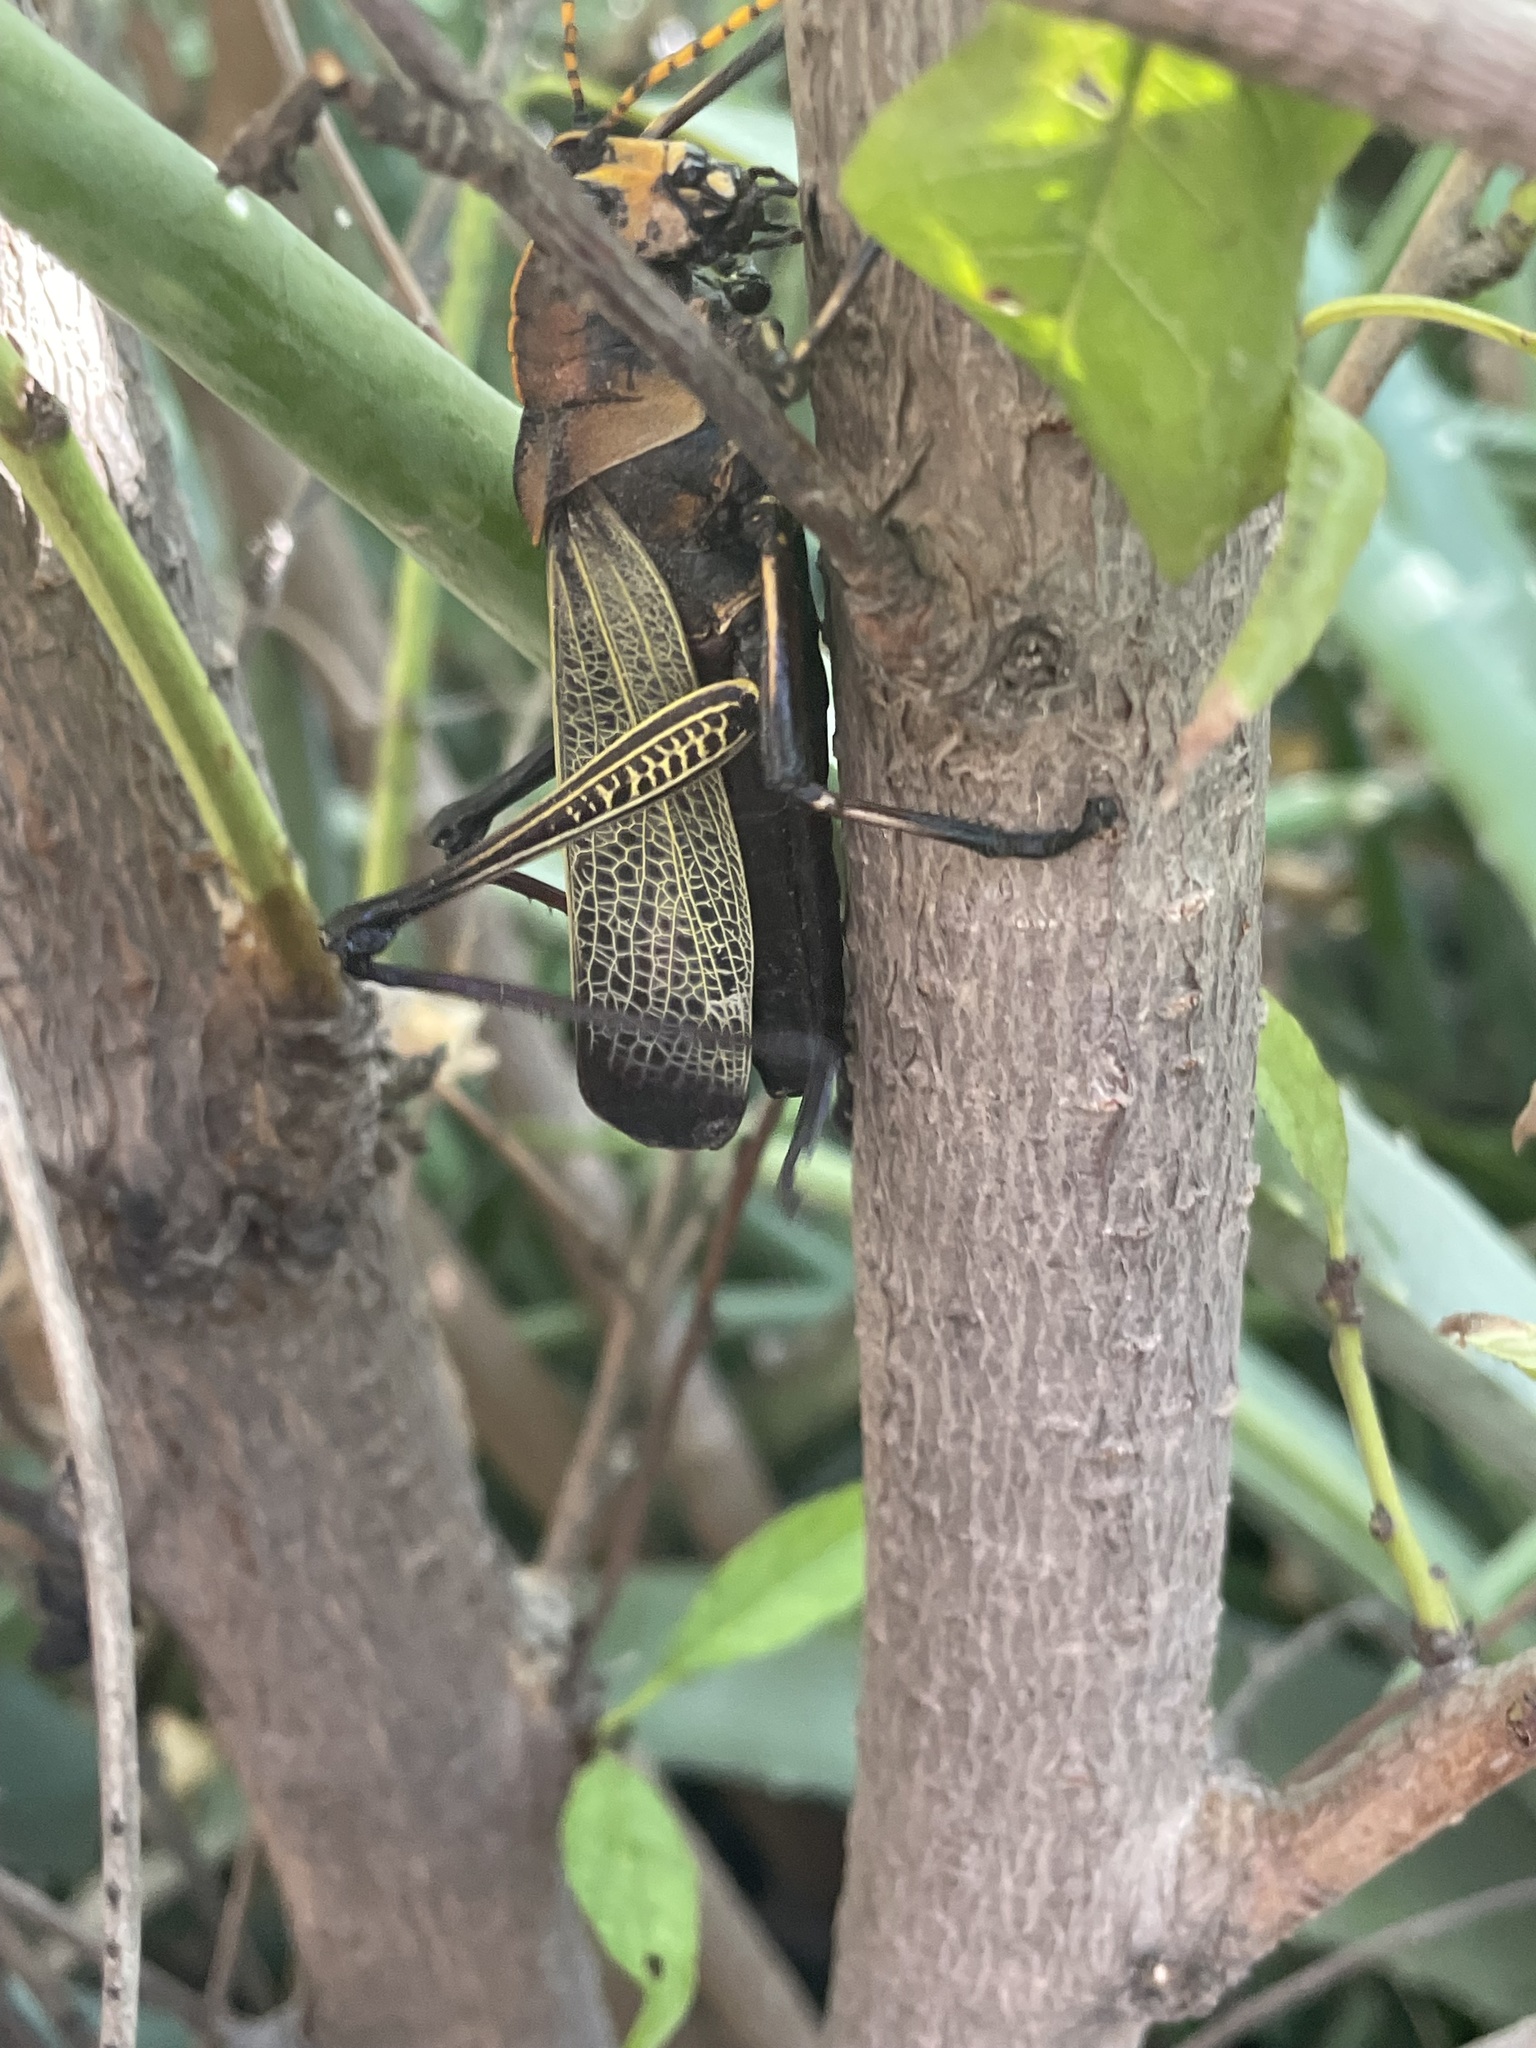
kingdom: Animalia
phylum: Arthropoda
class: Insecta
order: Orthoptera
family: Romaleidae
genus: Romalea
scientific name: Romalea
